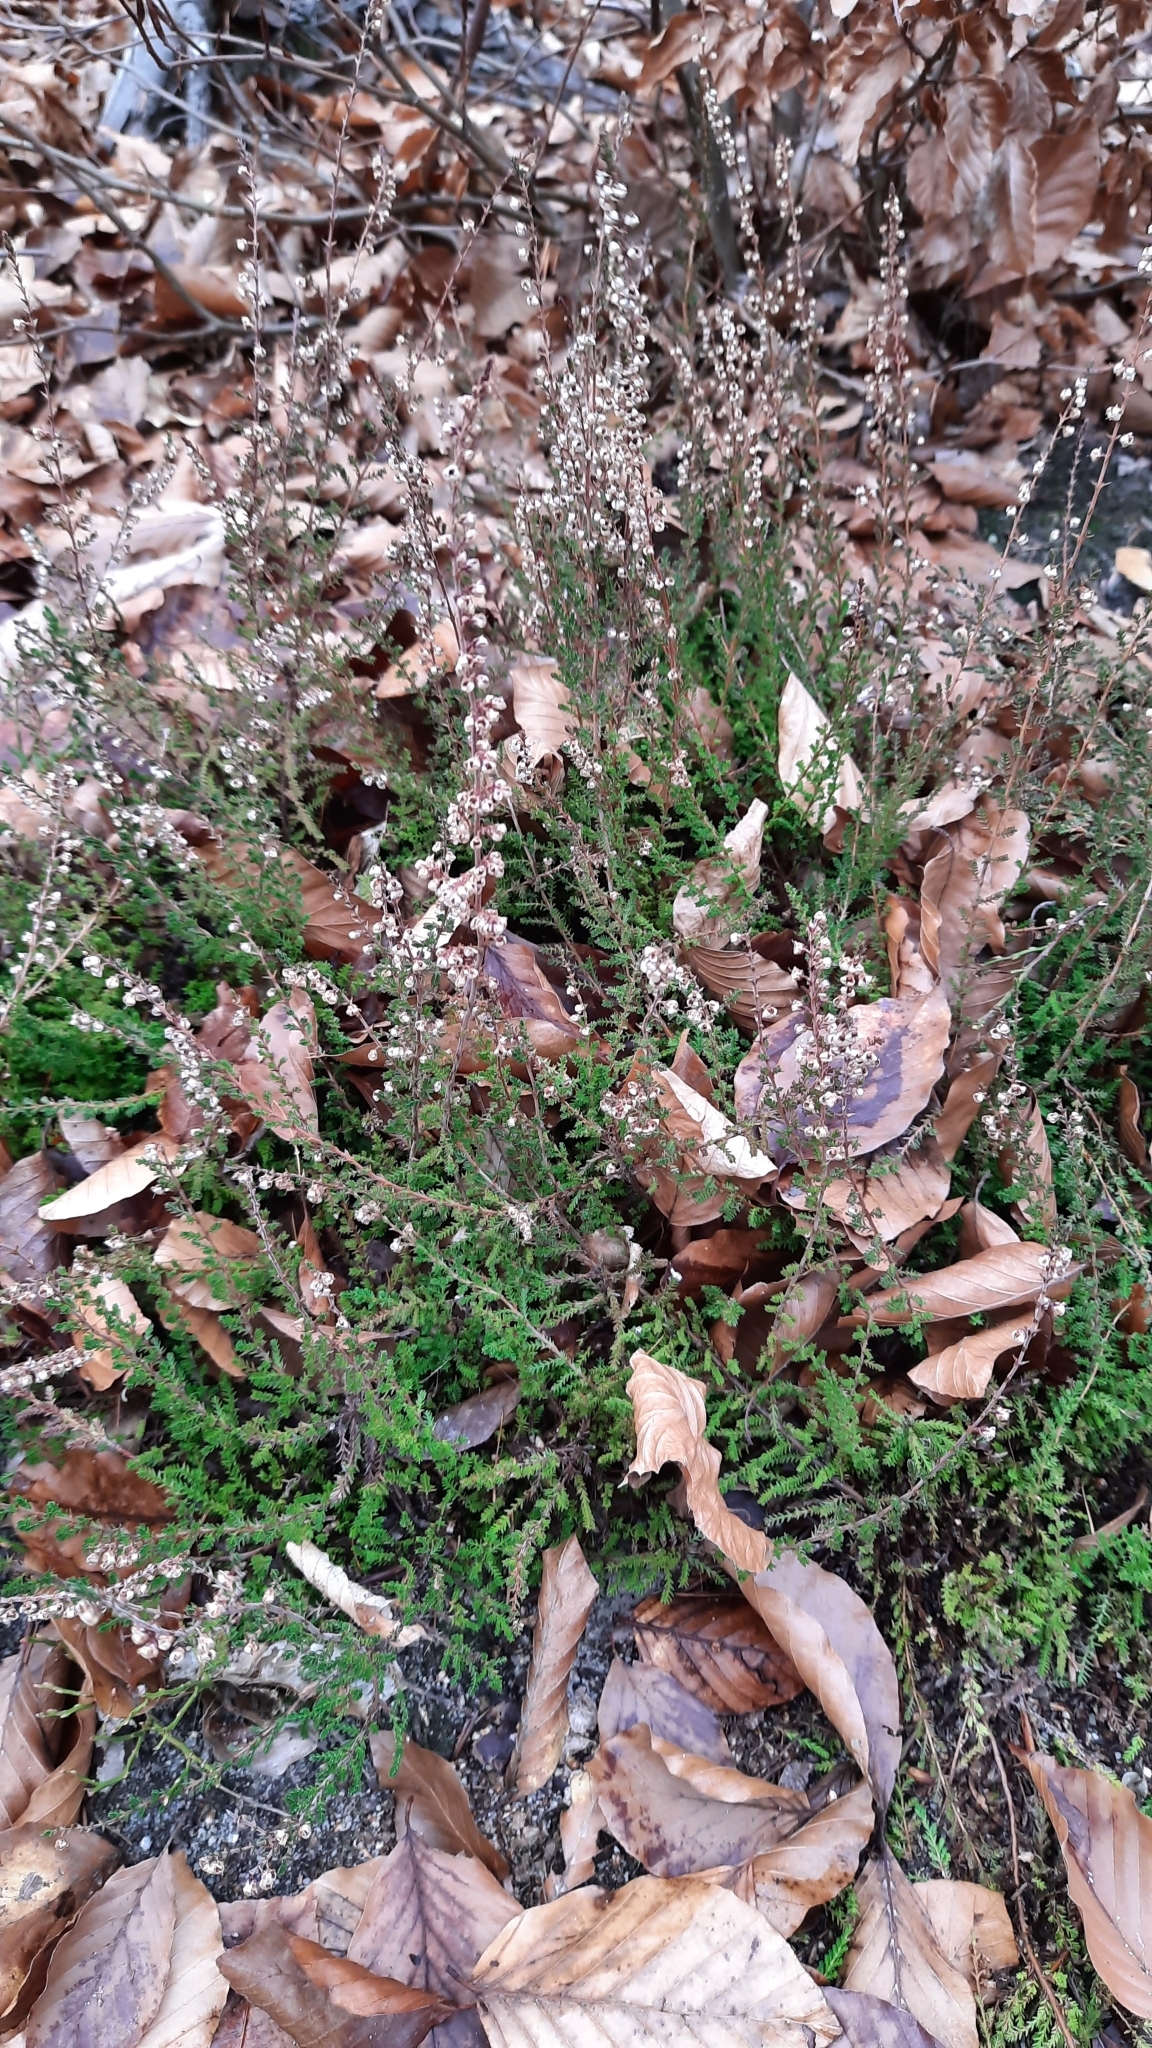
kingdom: Plantae
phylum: Tracheophyta
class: Magnoliopsida
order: Ericales
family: Ericaceae
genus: Calluna
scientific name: Calluna vulgaris
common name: Heather
